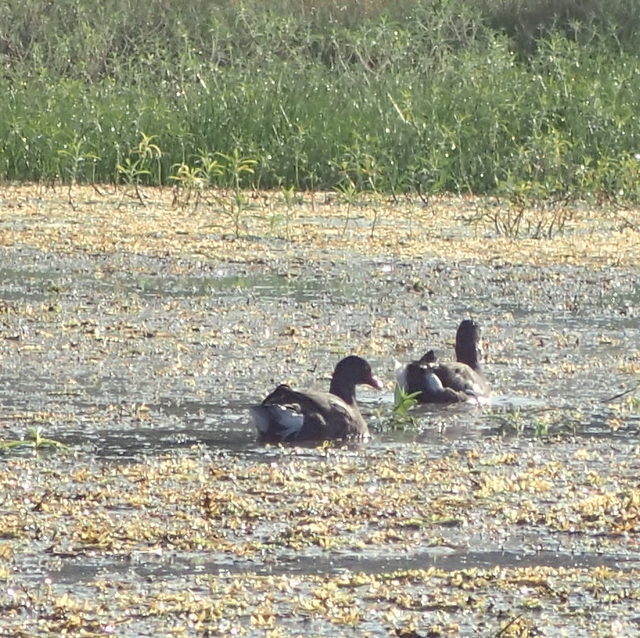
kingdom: Animalia
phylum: Chordata
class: Aves
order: Gruiformes
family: Rallidae
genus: Gallinula
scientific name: Gallinula chloropus
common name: Common moorhen
